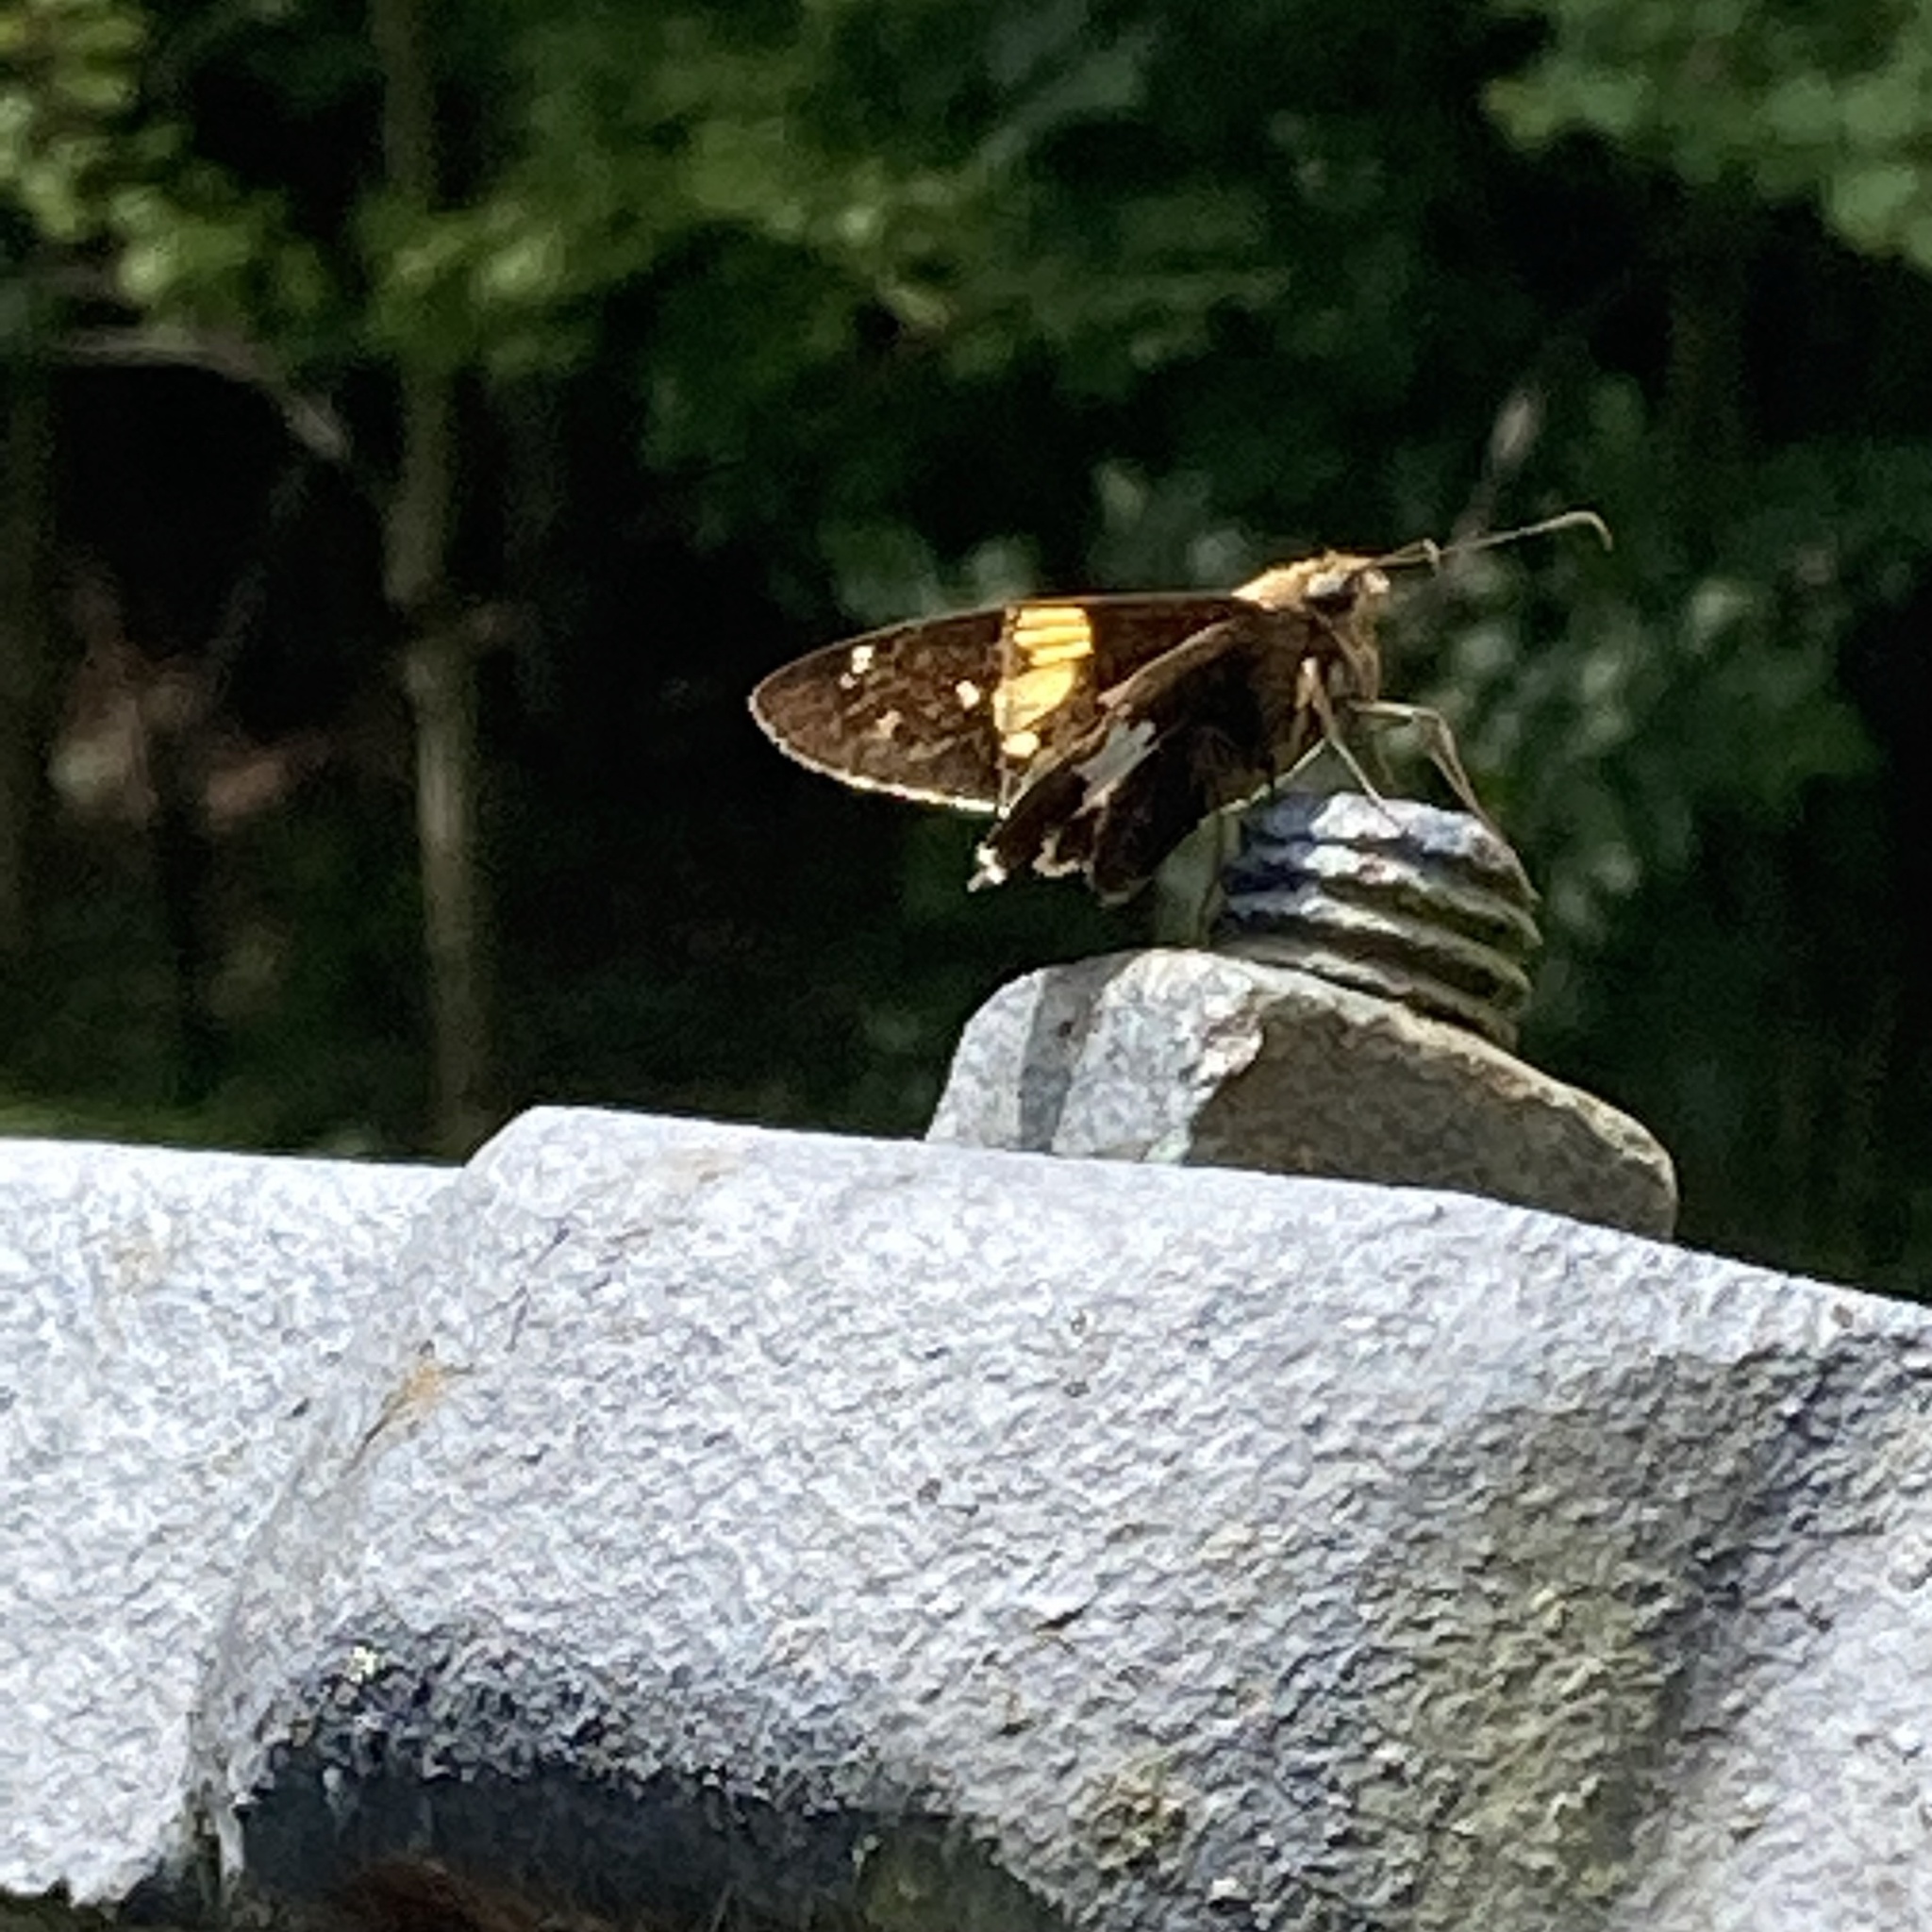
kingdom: Animalia
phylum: Arthropoda
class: Insecta
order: Lepidoptera
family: Hesperiidae
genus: Epargyreus
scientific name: Epargyreus clarus
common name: Silver-spotted skipper
